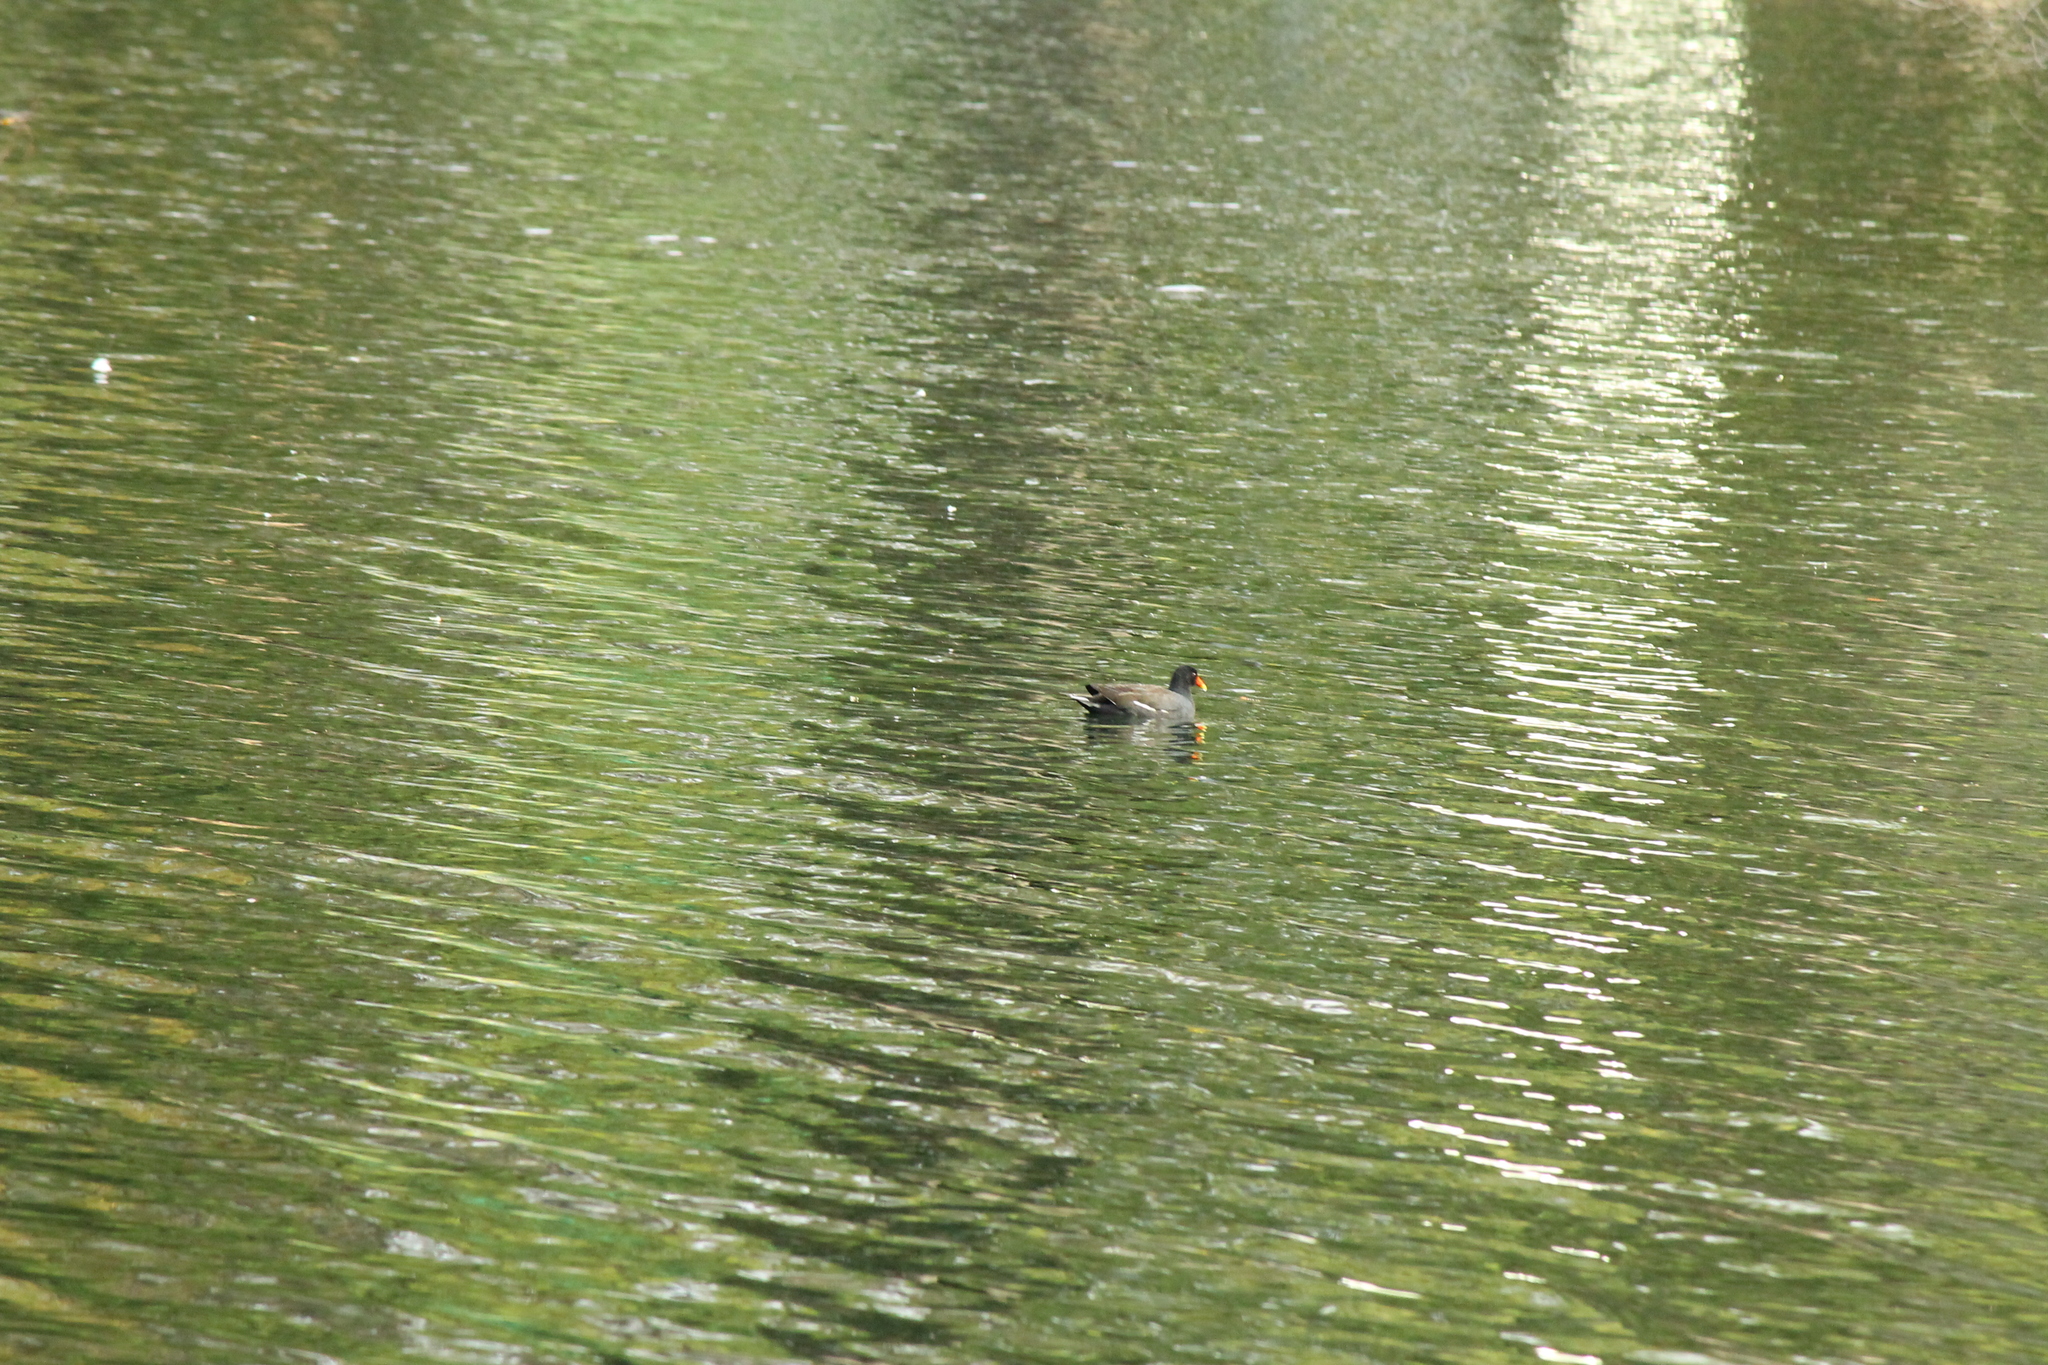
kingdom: Animalia
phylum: Chordata
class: Aves
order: Gruiformes
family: Rallidae
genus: Gallinula
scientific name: Gallinula chloropus
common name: Common moorhen
